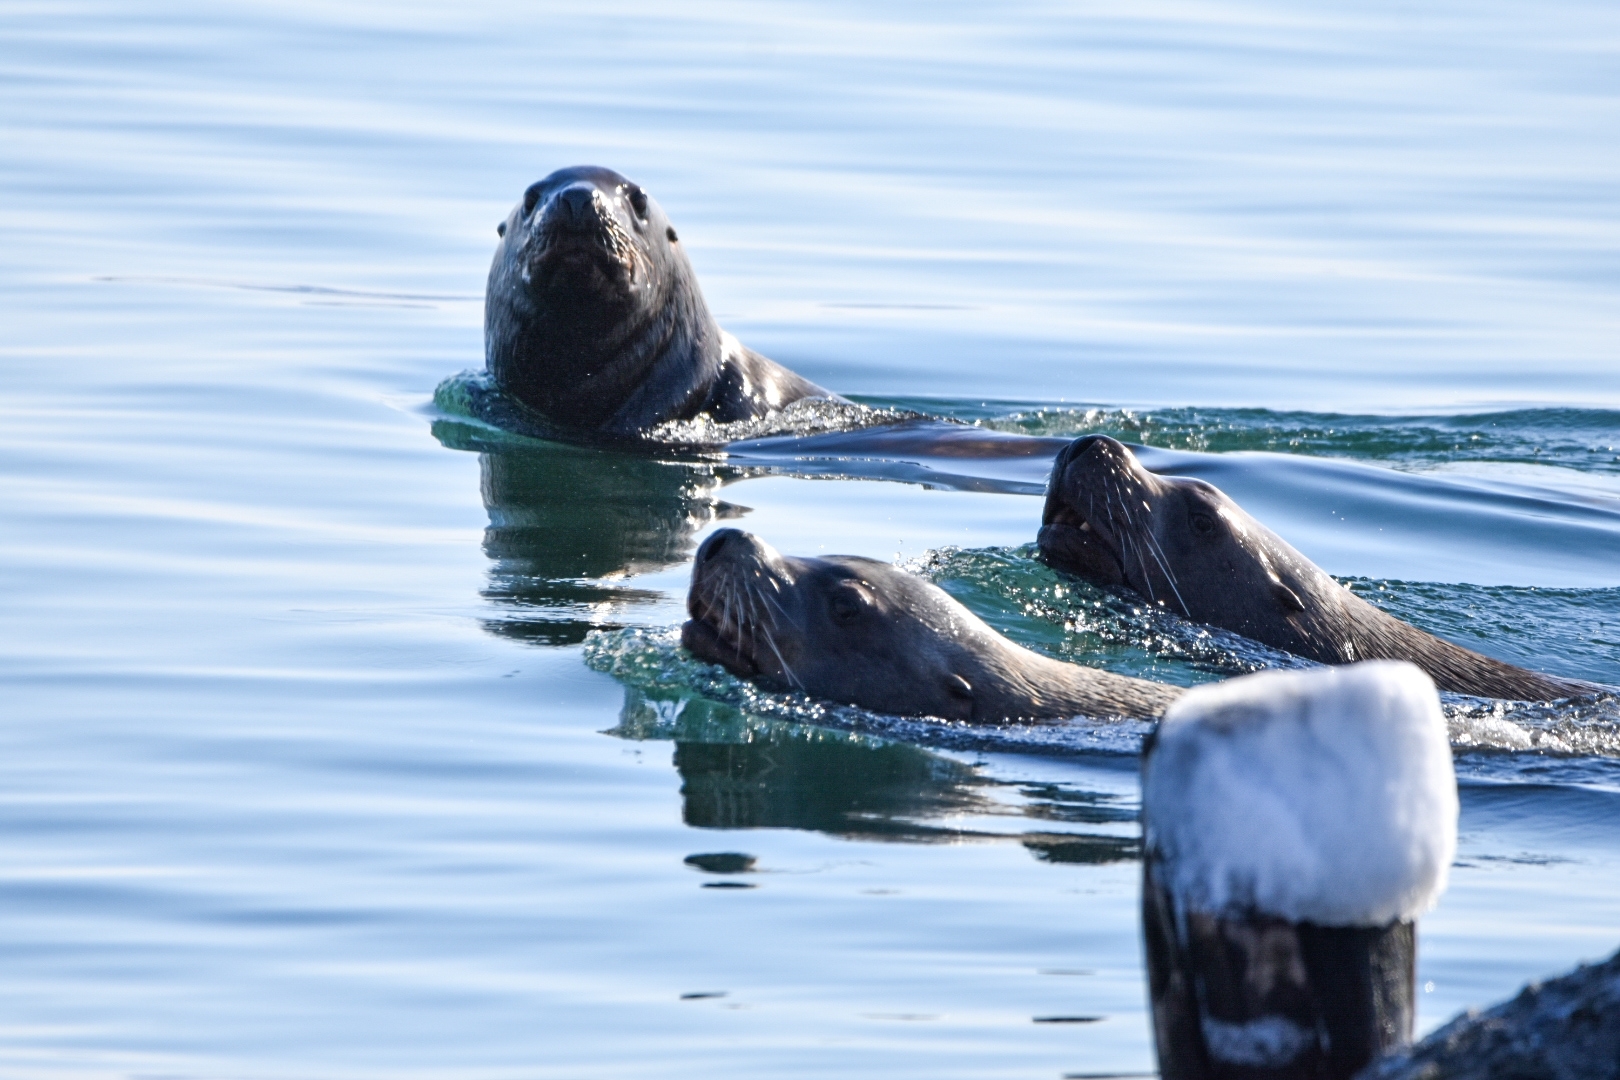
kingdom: Animalia
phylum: Chordata
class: Mammalia
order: Carnivora
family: Otariidae
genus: Eumetopias
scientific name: Eumetopias jubatus
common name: Steller sea lion
